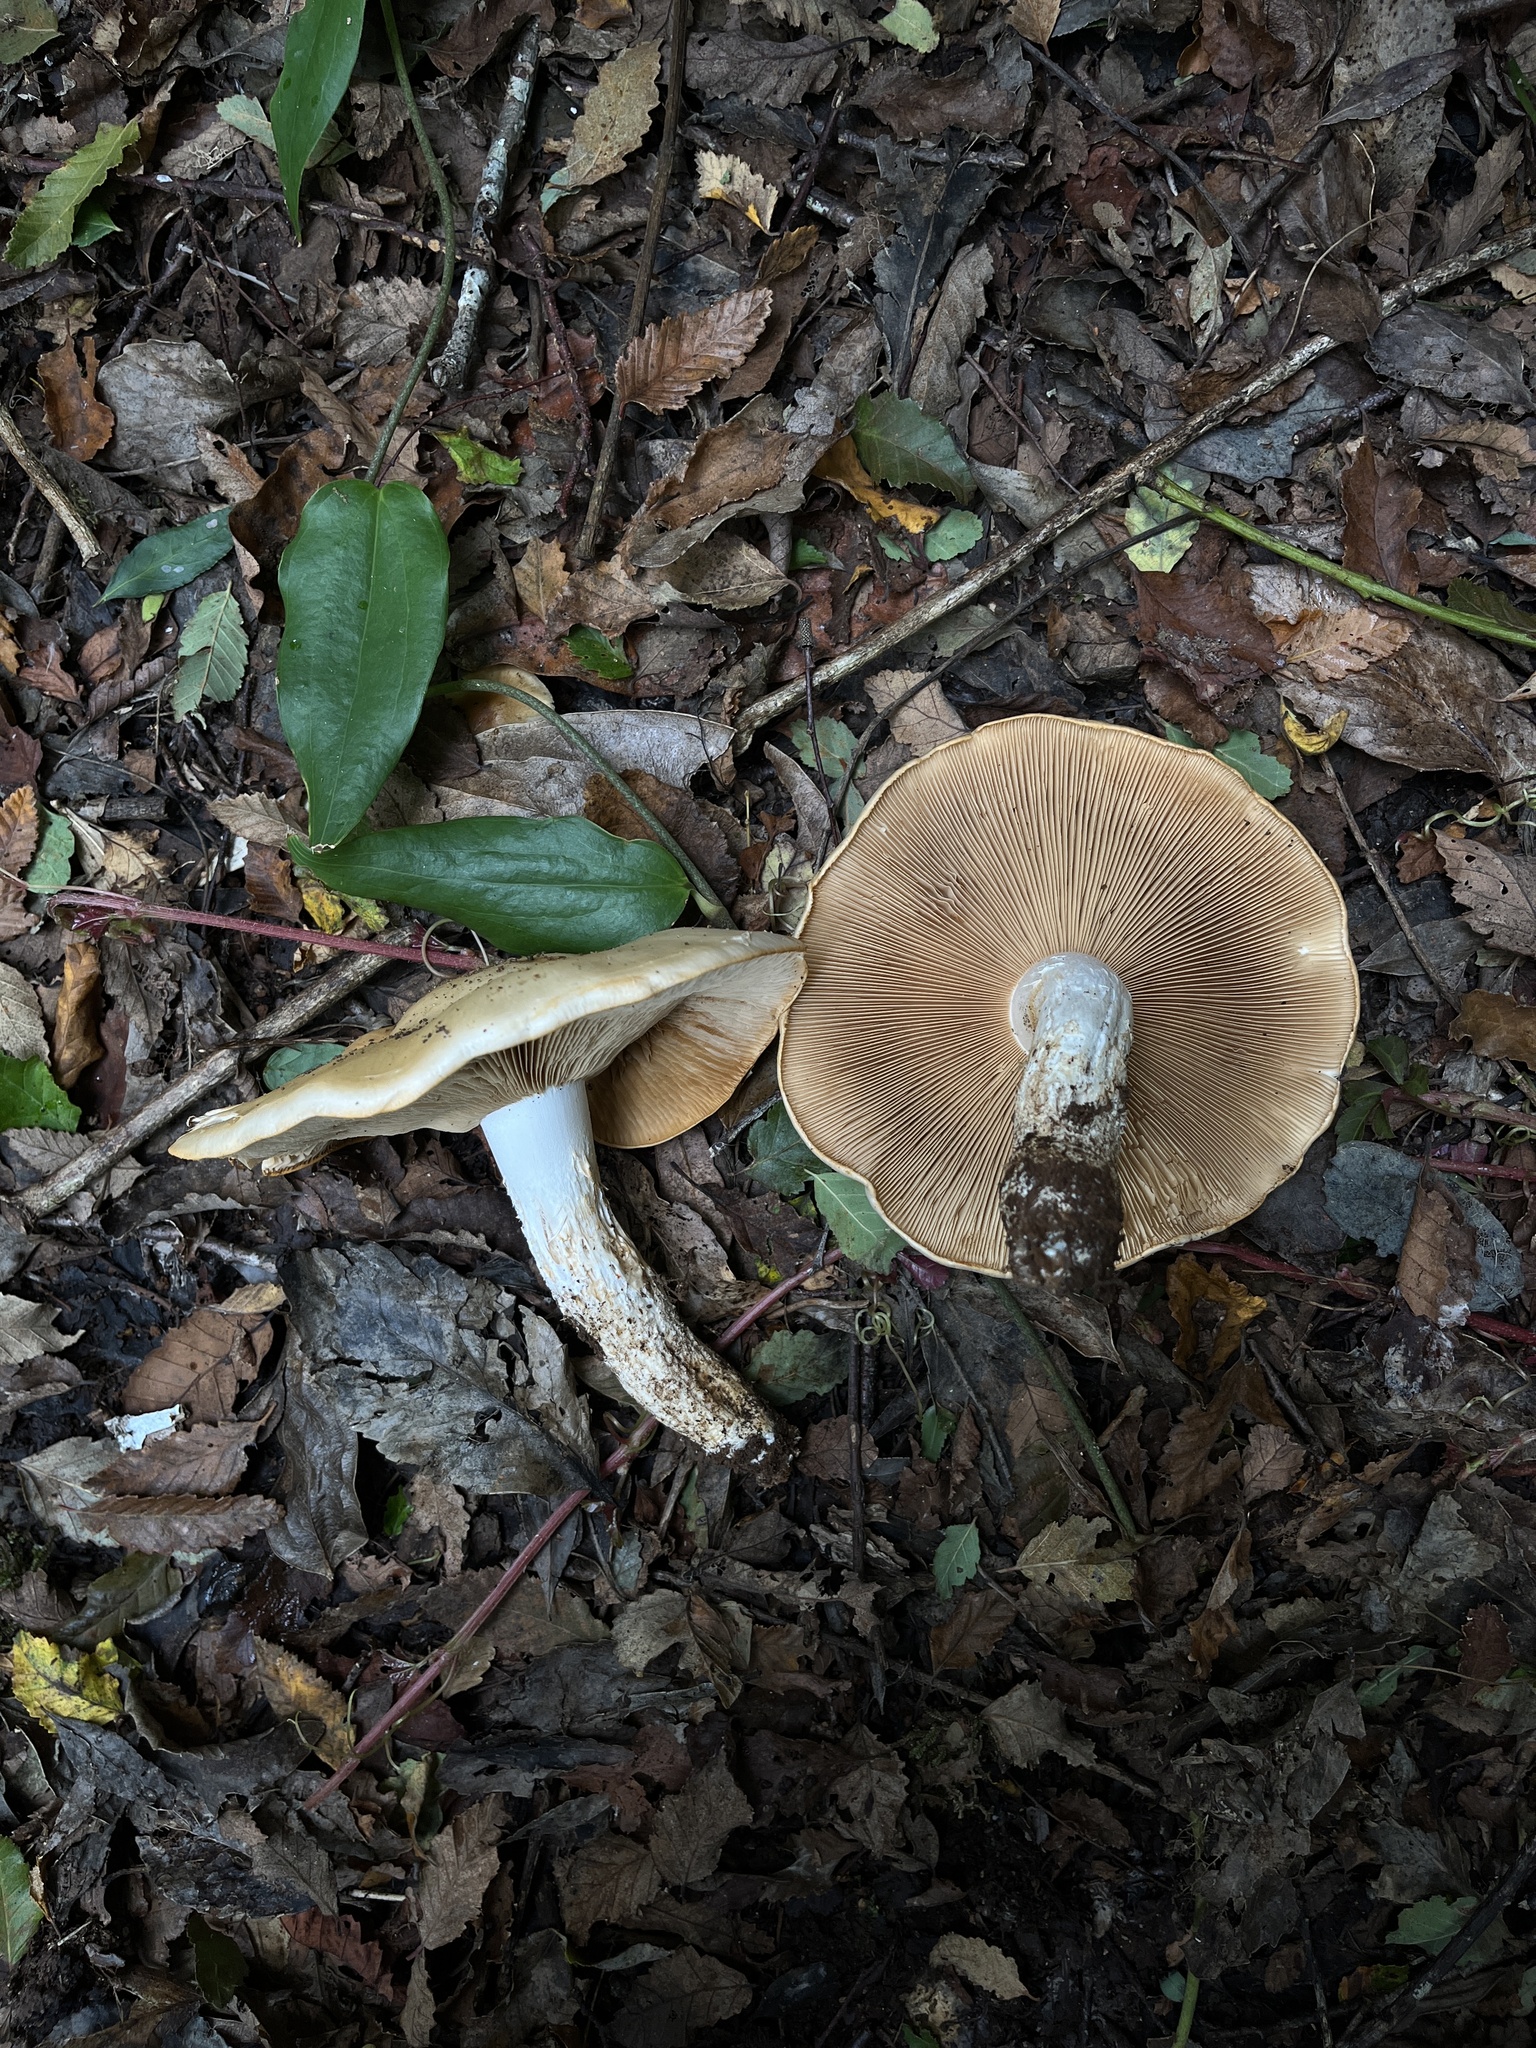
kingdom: Fungi
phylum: Basidiomycota
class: Agaricomycetes
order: Agaricales
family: Cortinariaceae
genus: Thaxterogaster
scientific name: Thaxterogaster effundens
